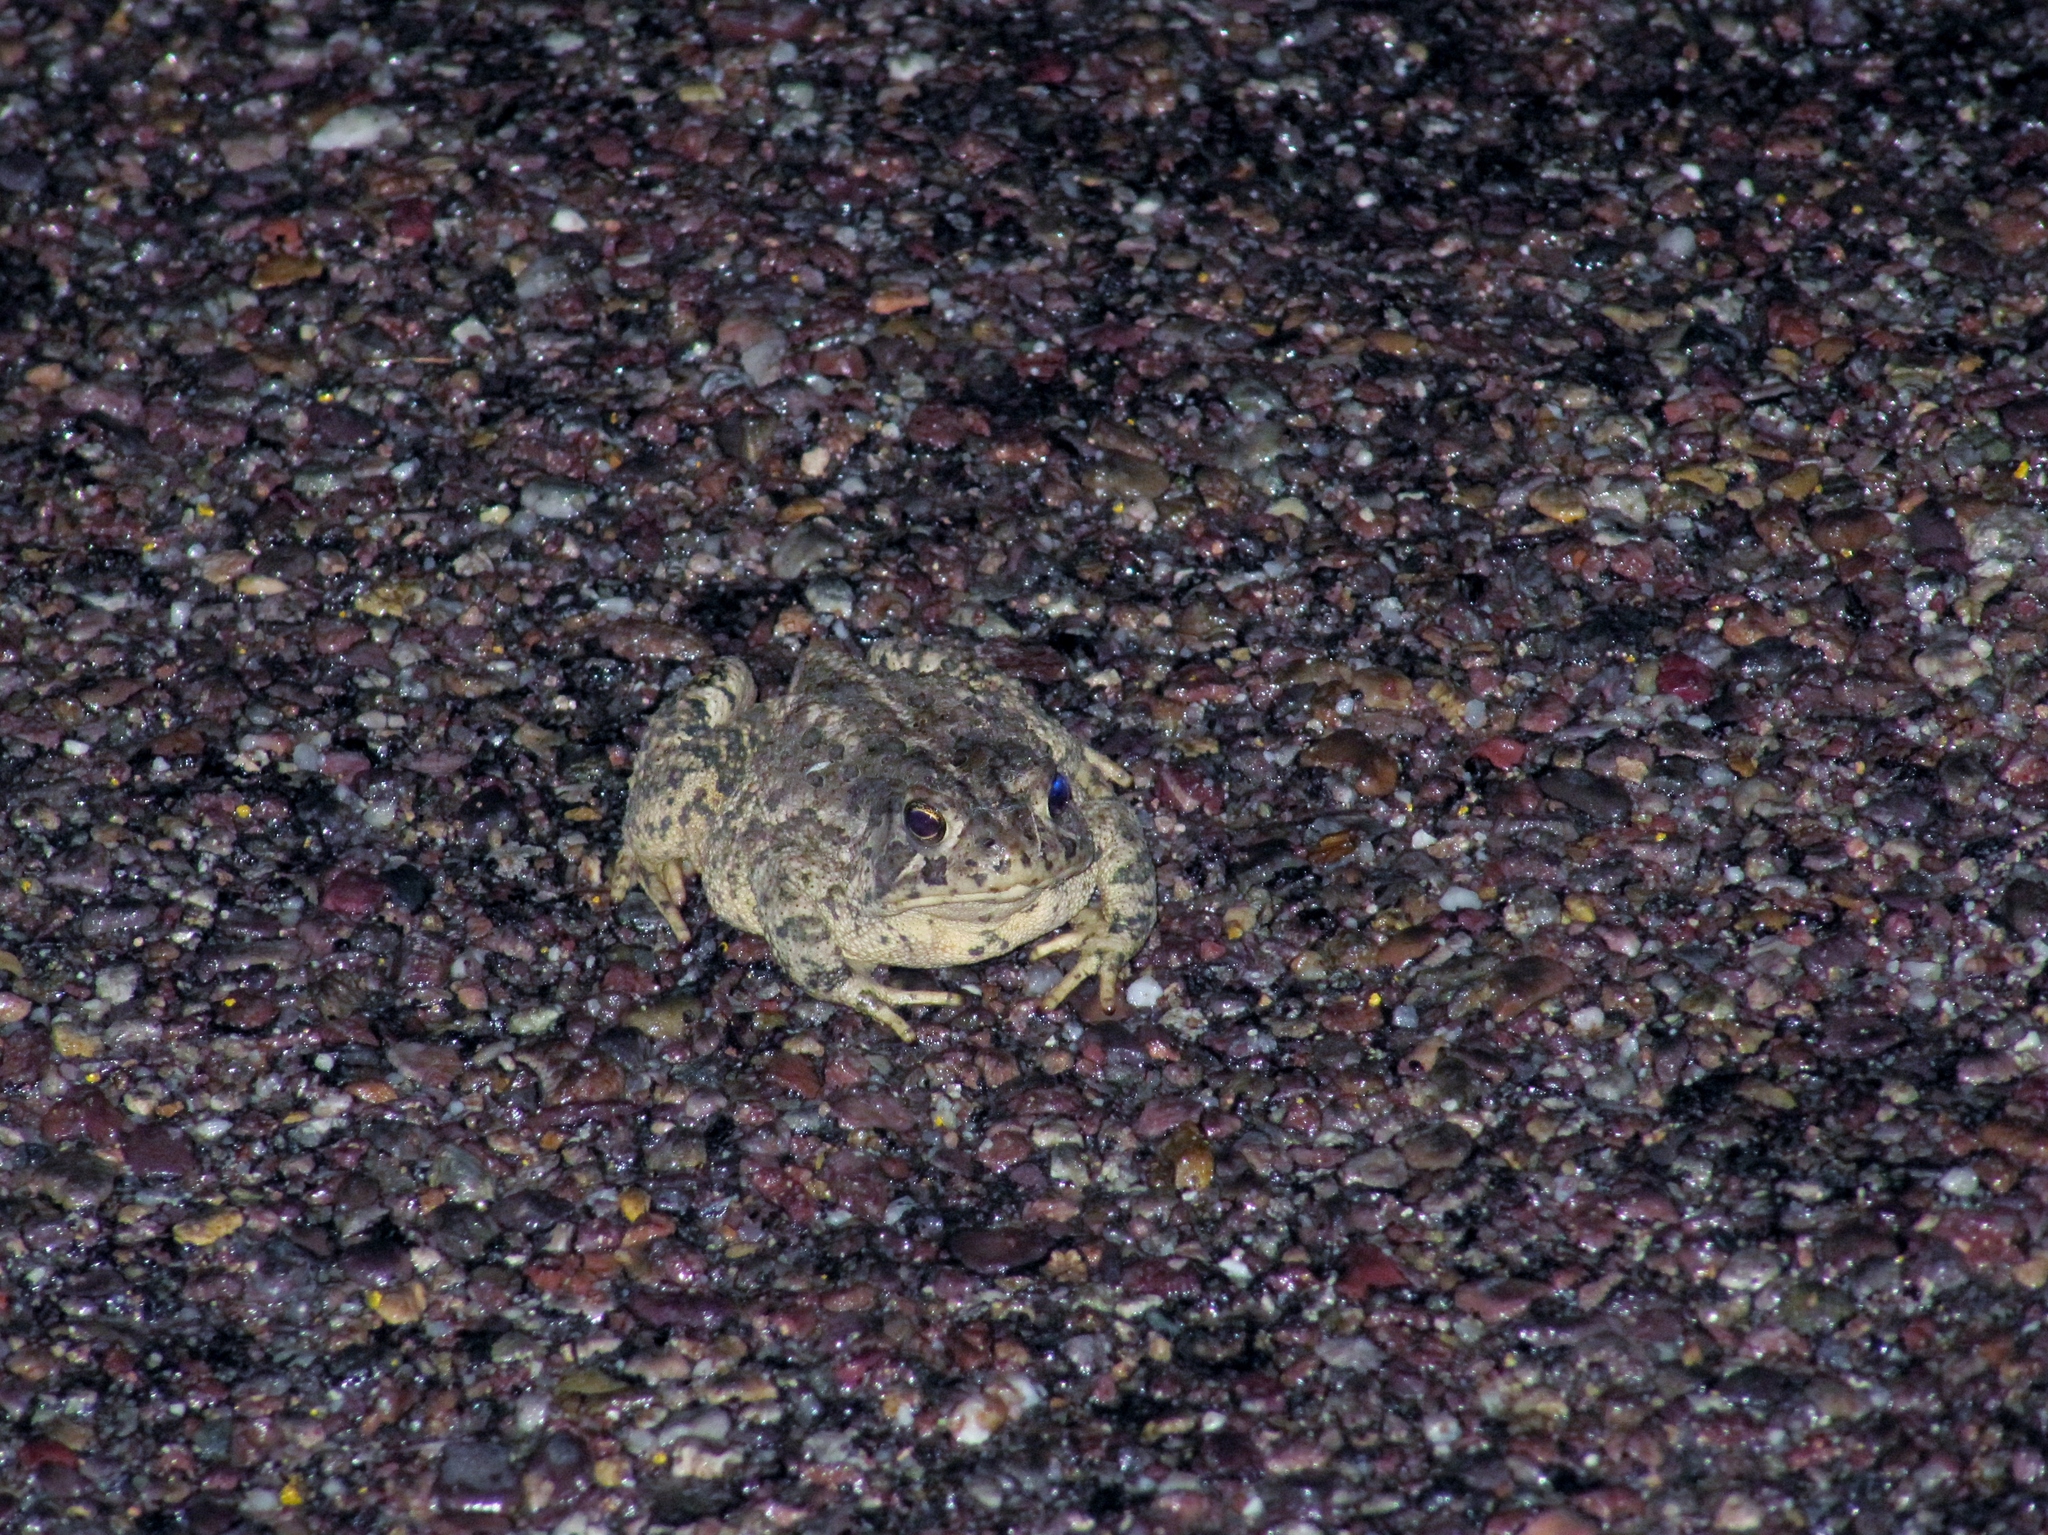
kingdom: Animalia
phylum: Chordata
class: Amphibia
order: Anura
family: Bufonidae
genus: Anaxyrus
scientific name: Anaxyrus woodhousii
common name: Woodhouse's toad
